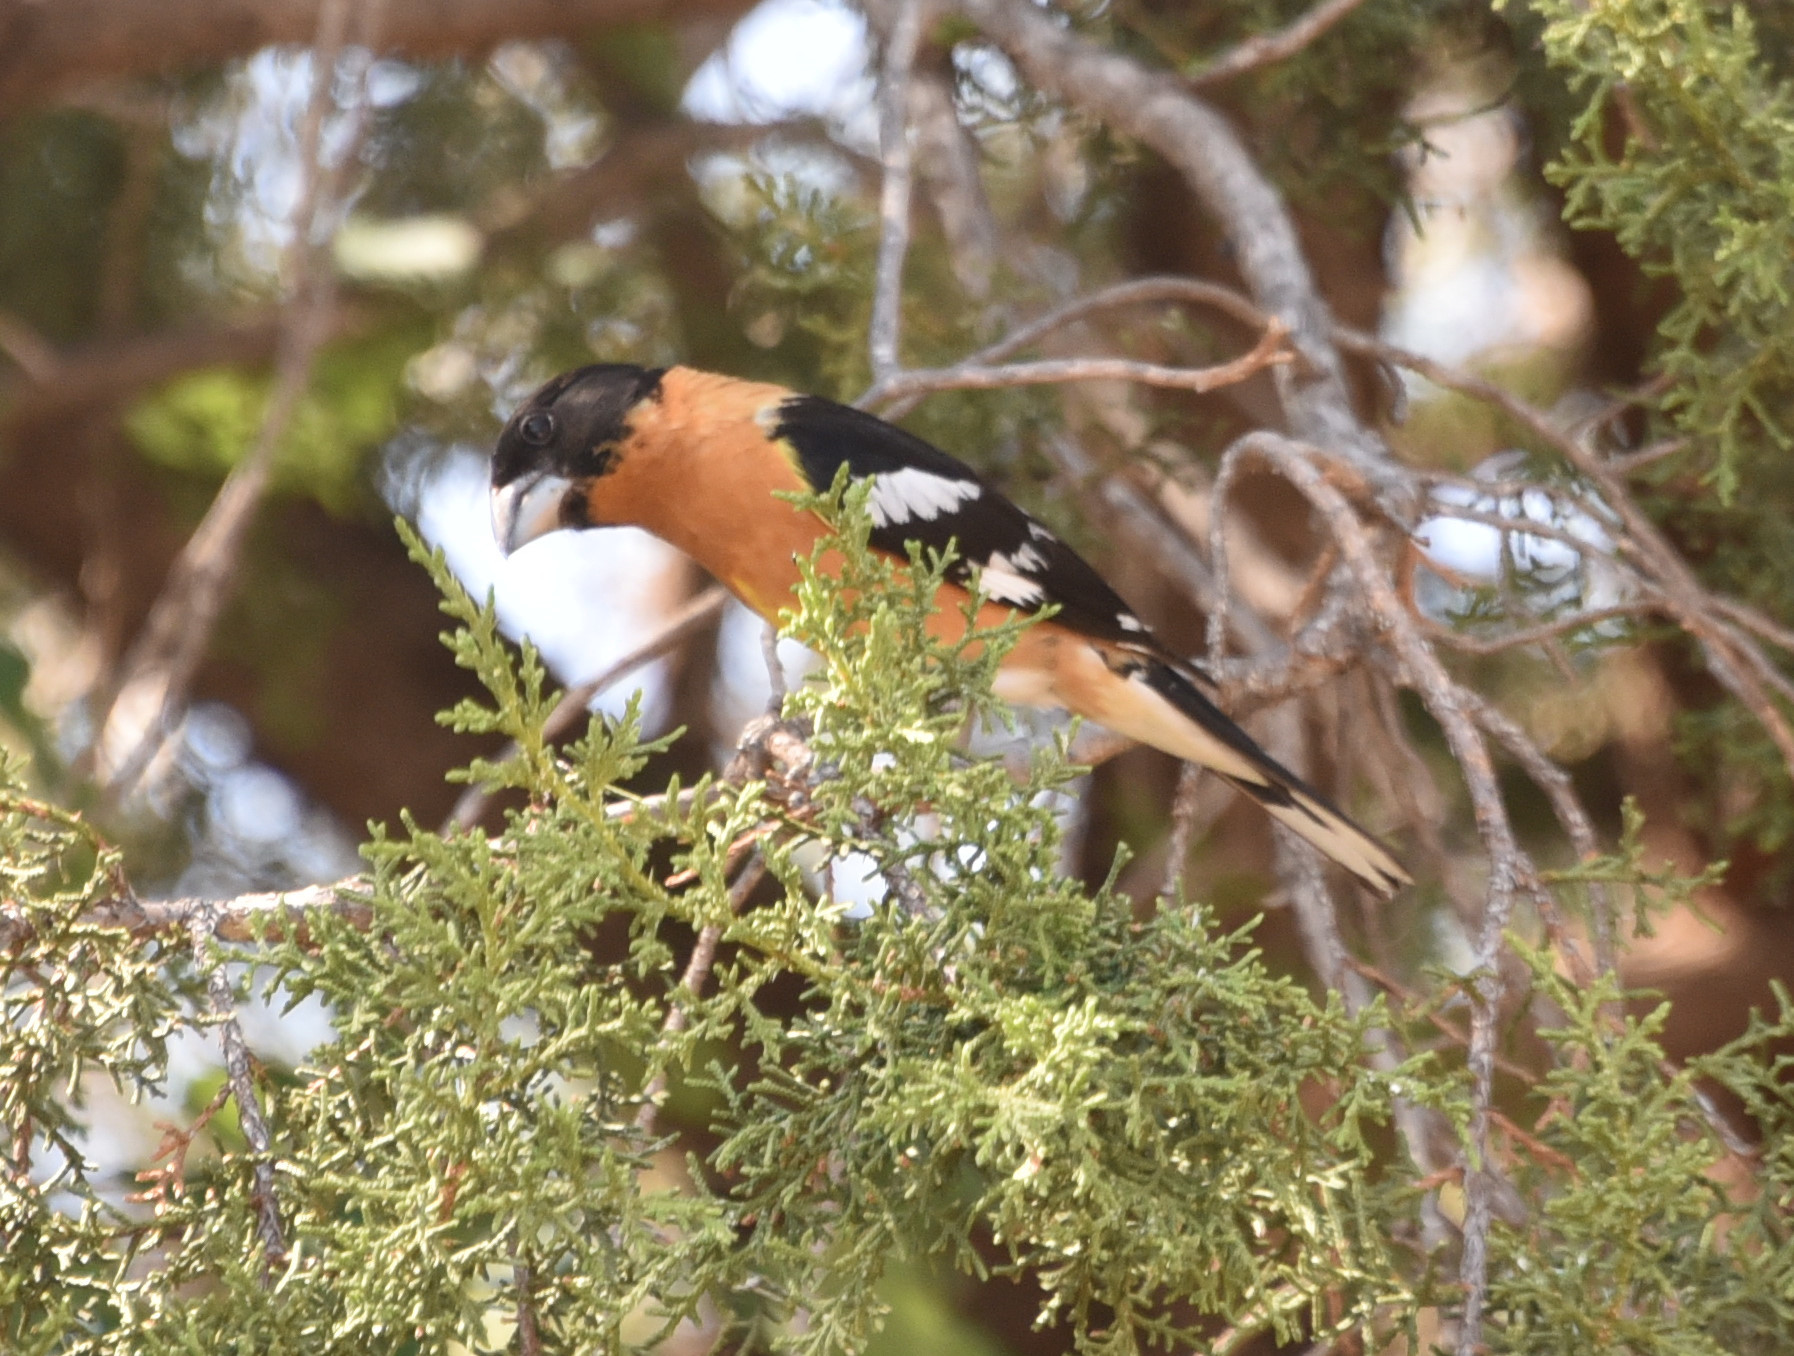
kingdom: Animalia
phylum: Chordata
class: Aves
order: Passeriformes
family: Cardinalidae
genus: Pheucticus
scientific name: Pheucticus melanocephalus
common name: Black-headed grosbeak
